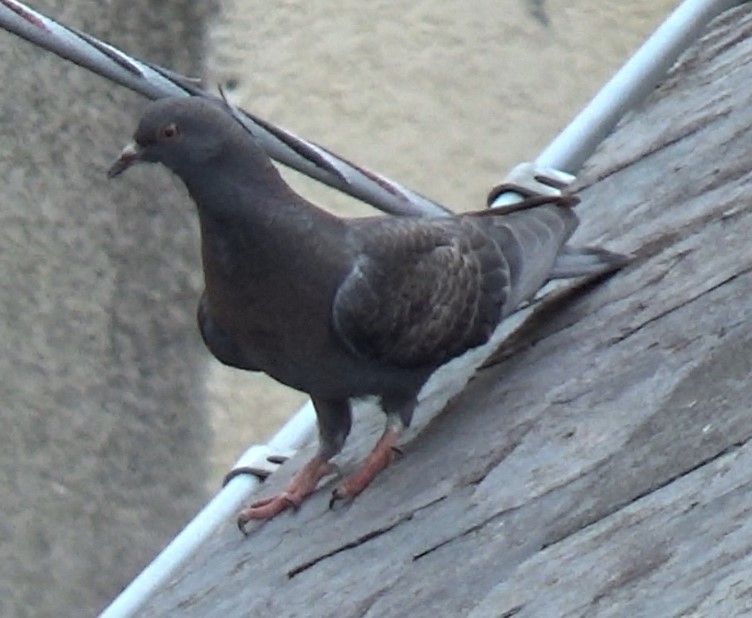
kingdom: Animalia
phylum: Chordata
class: Aves
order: Columbiformes
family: Columbidae
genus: Columba
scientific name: Columba livia
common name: Rock pigeon
